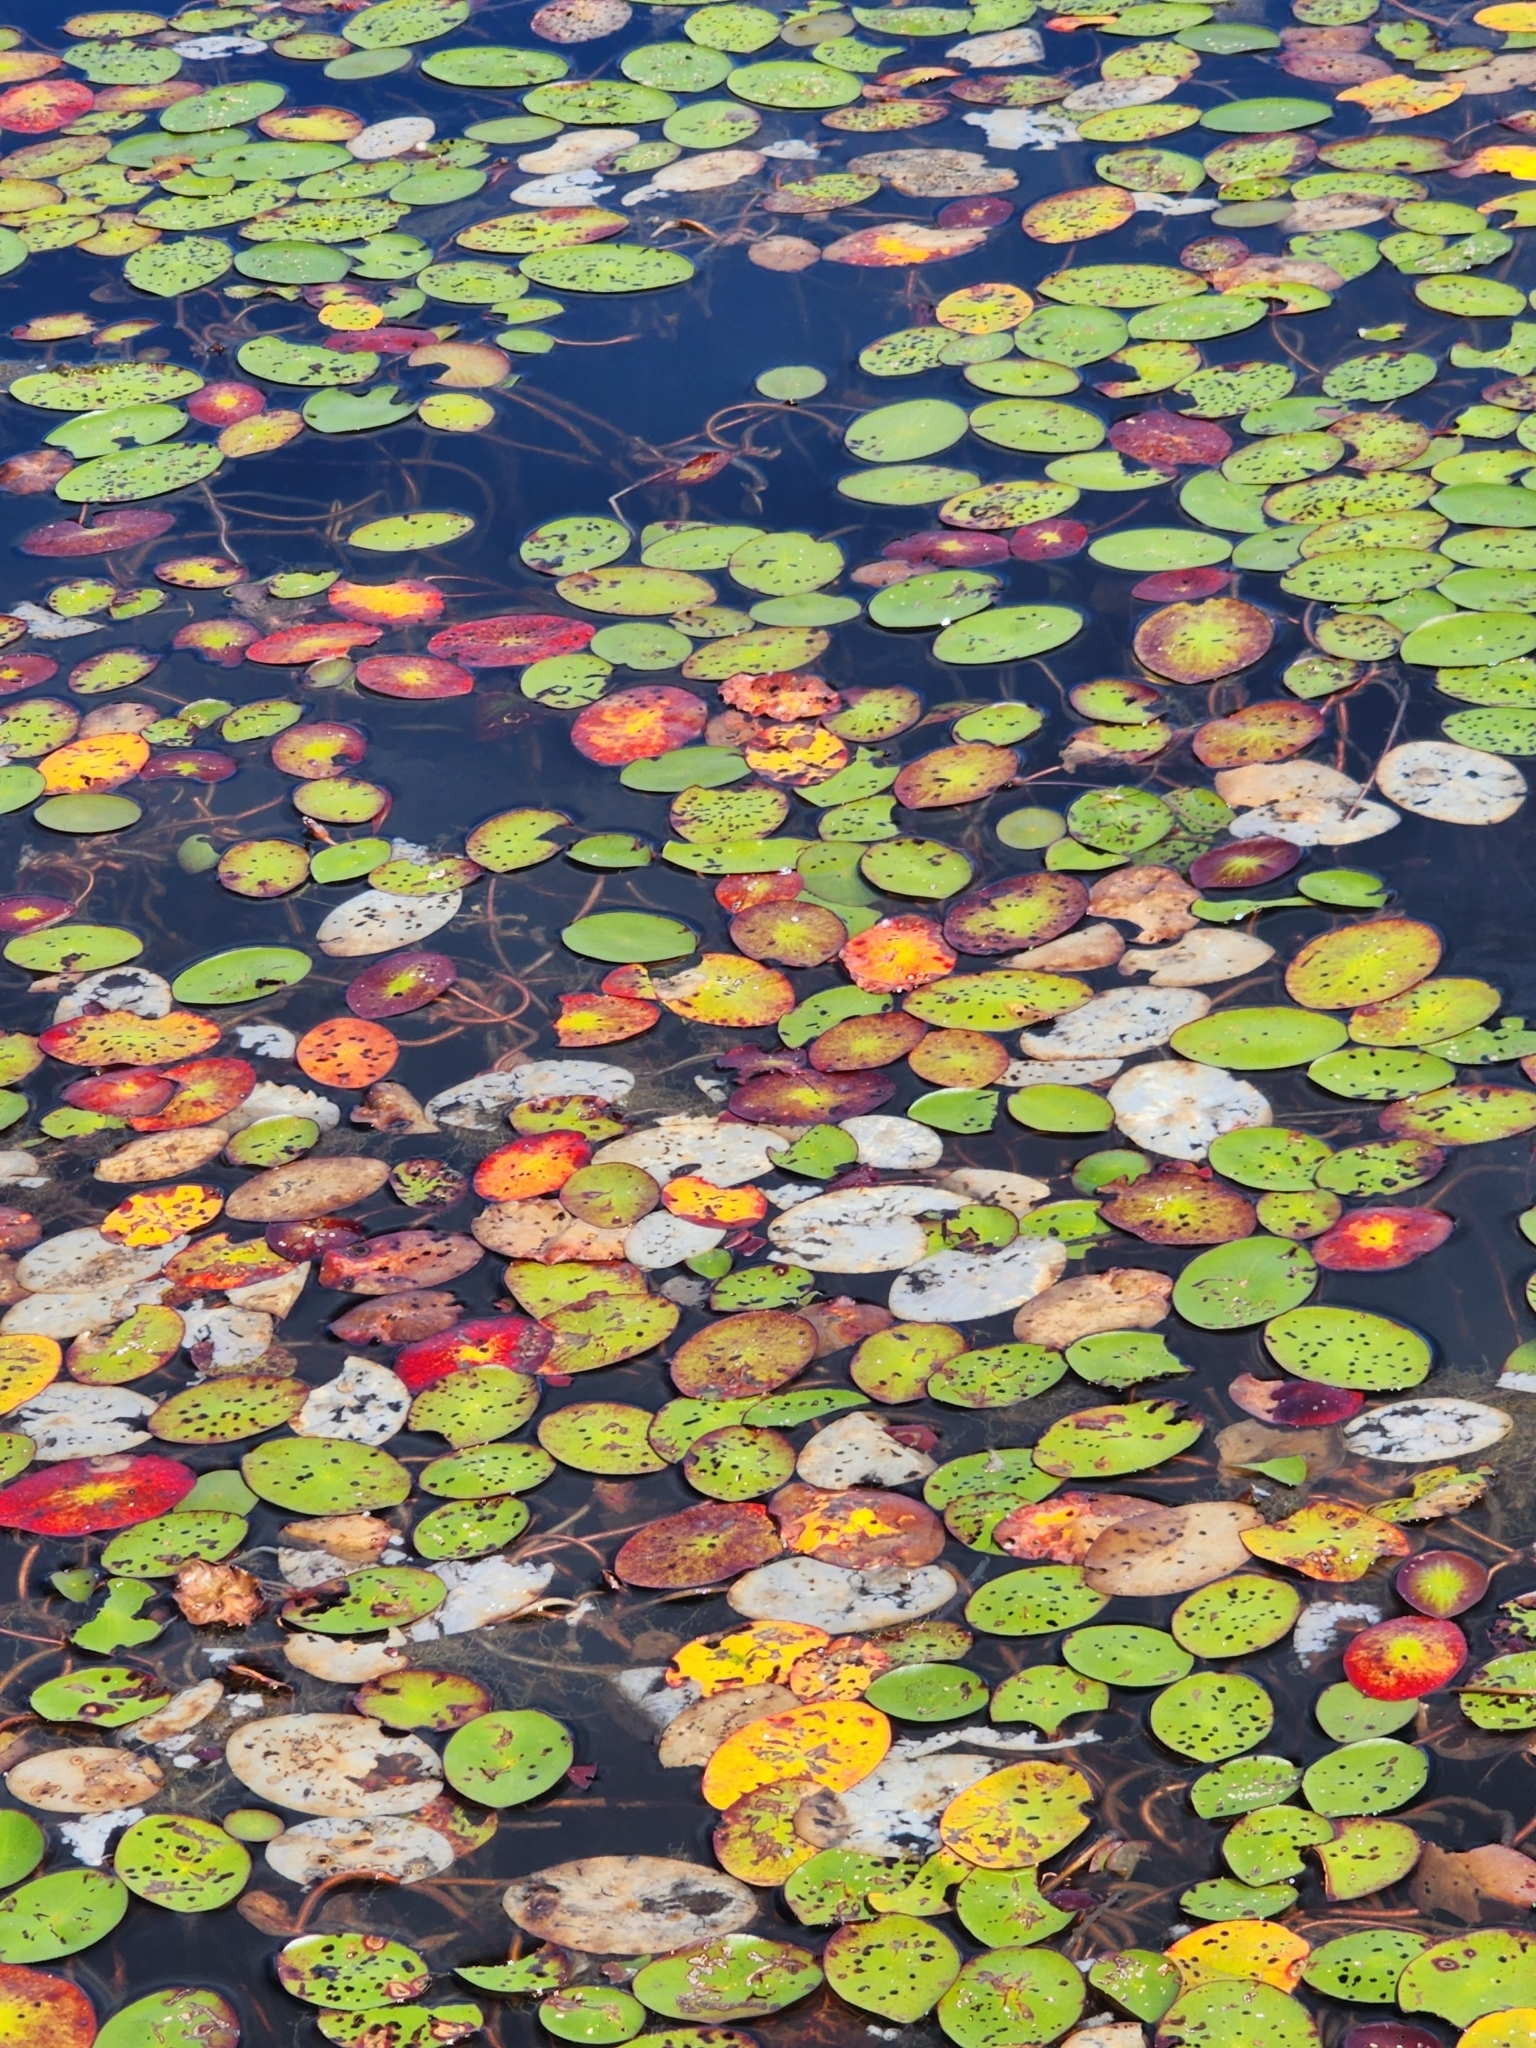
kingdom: Plantae
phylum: Tracheophyta
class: Magnoliopsida
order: Nymphaeales
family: Cabombaceae
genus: Brasenia
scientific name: Brasenia schreberi
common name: Water-shield
